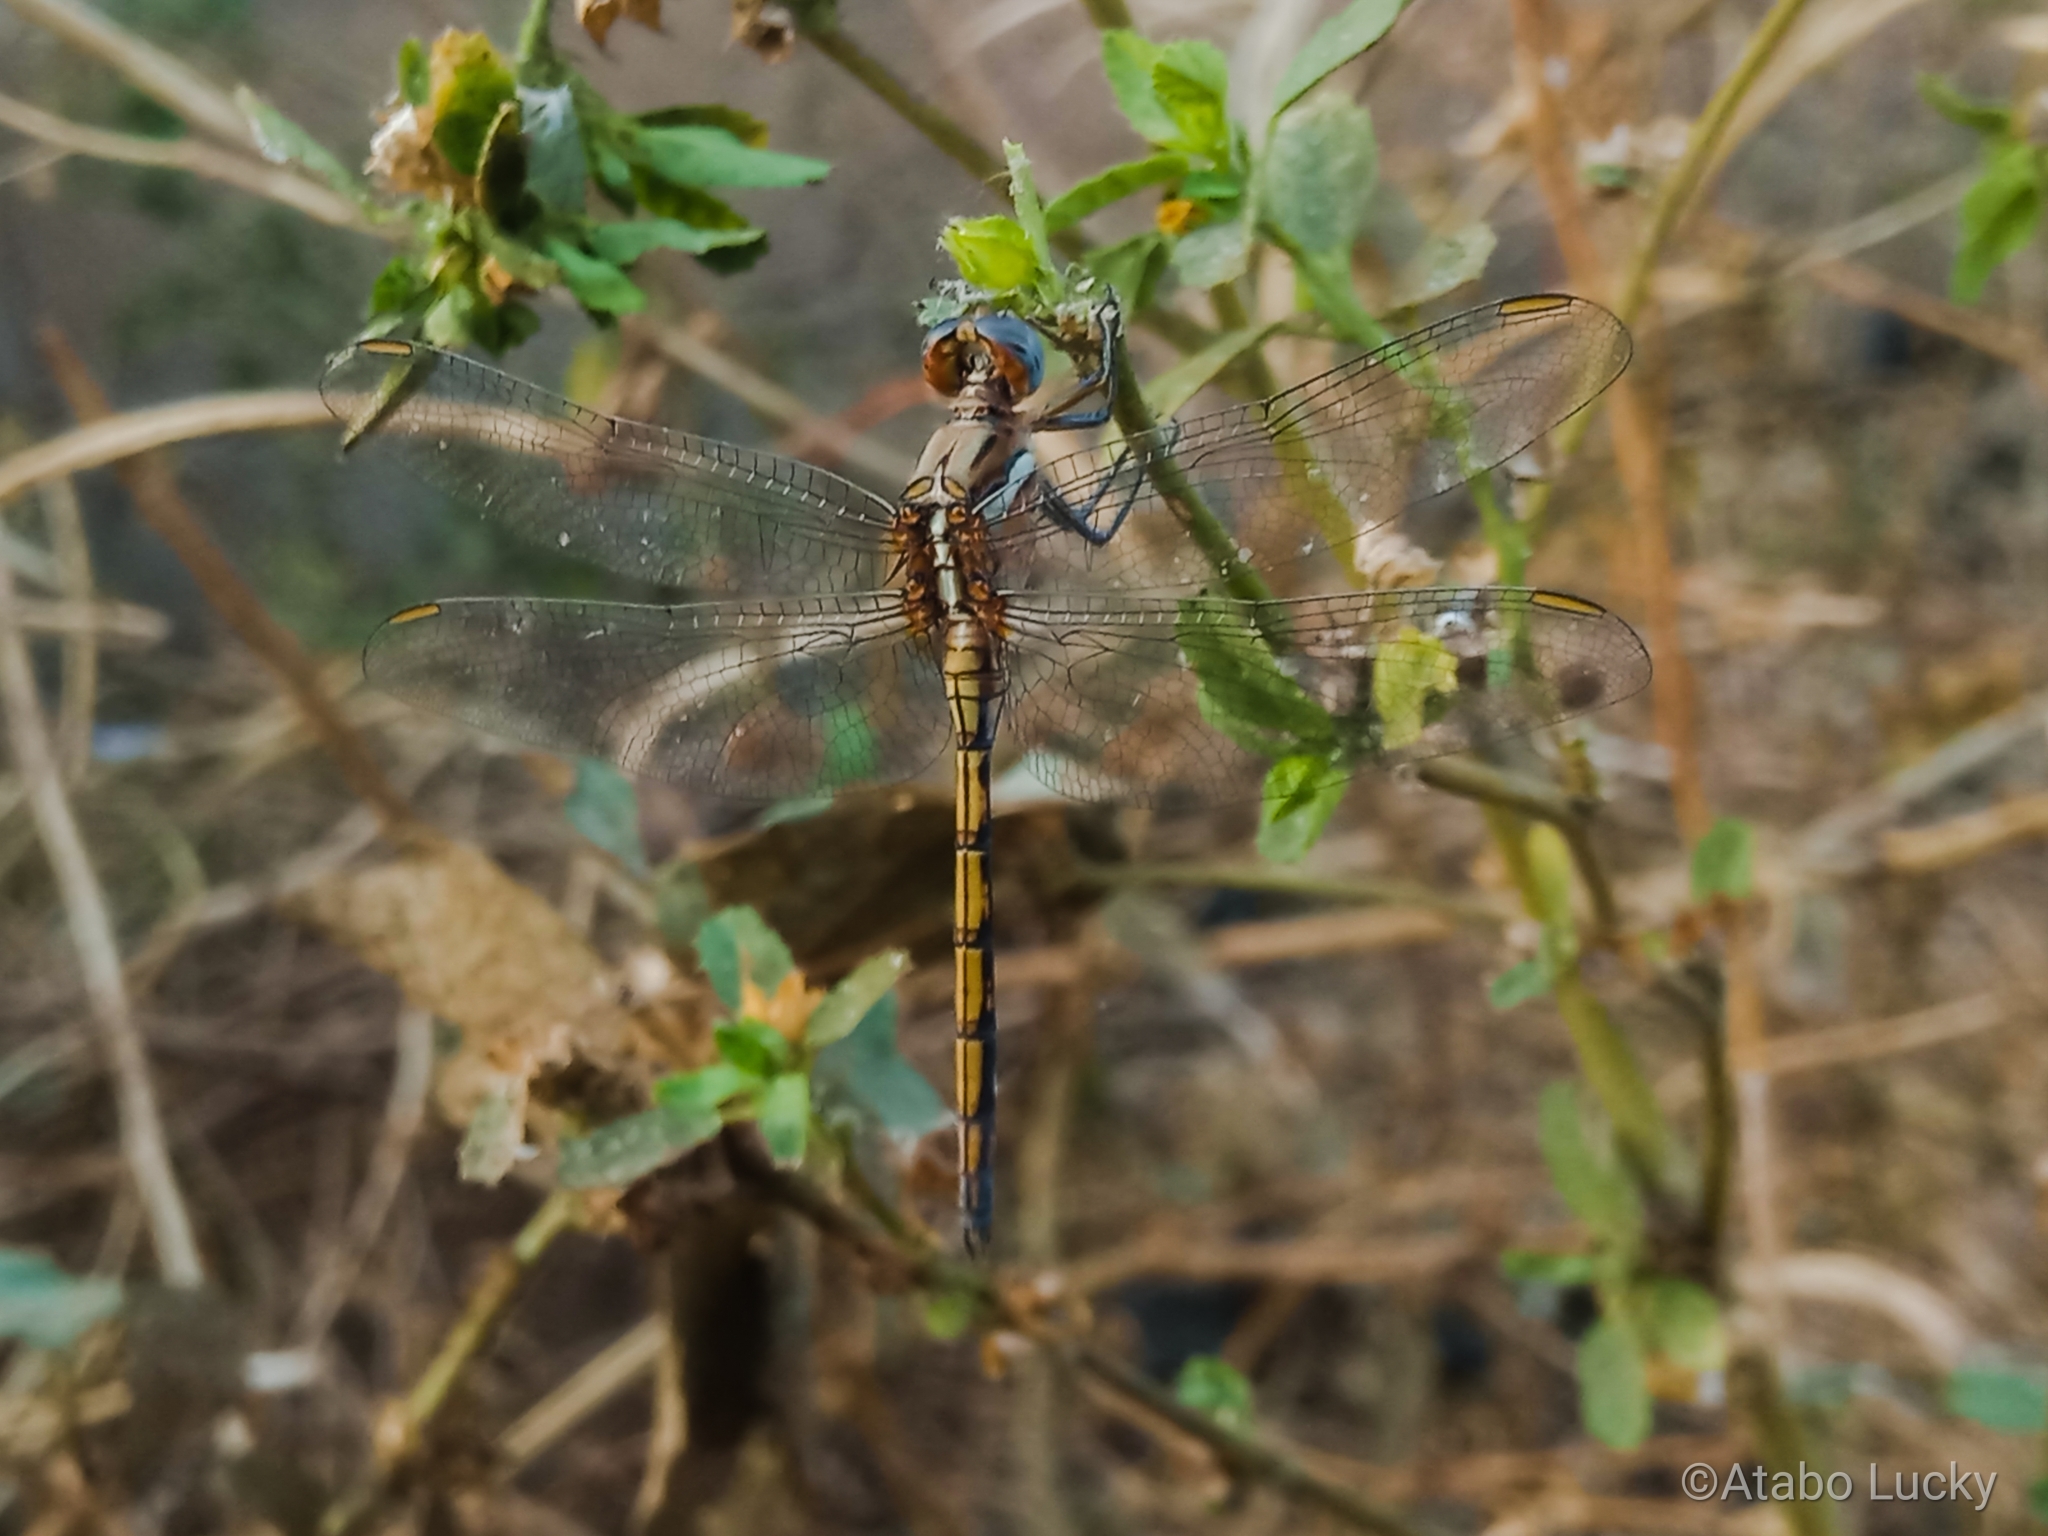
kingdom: Animalia
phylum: Arthropoda
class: Insecta
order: Odonata
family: Libellulidae
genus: Orthetrum
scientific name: Orthetrum chrysostigma
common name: Epaulet skimmer
